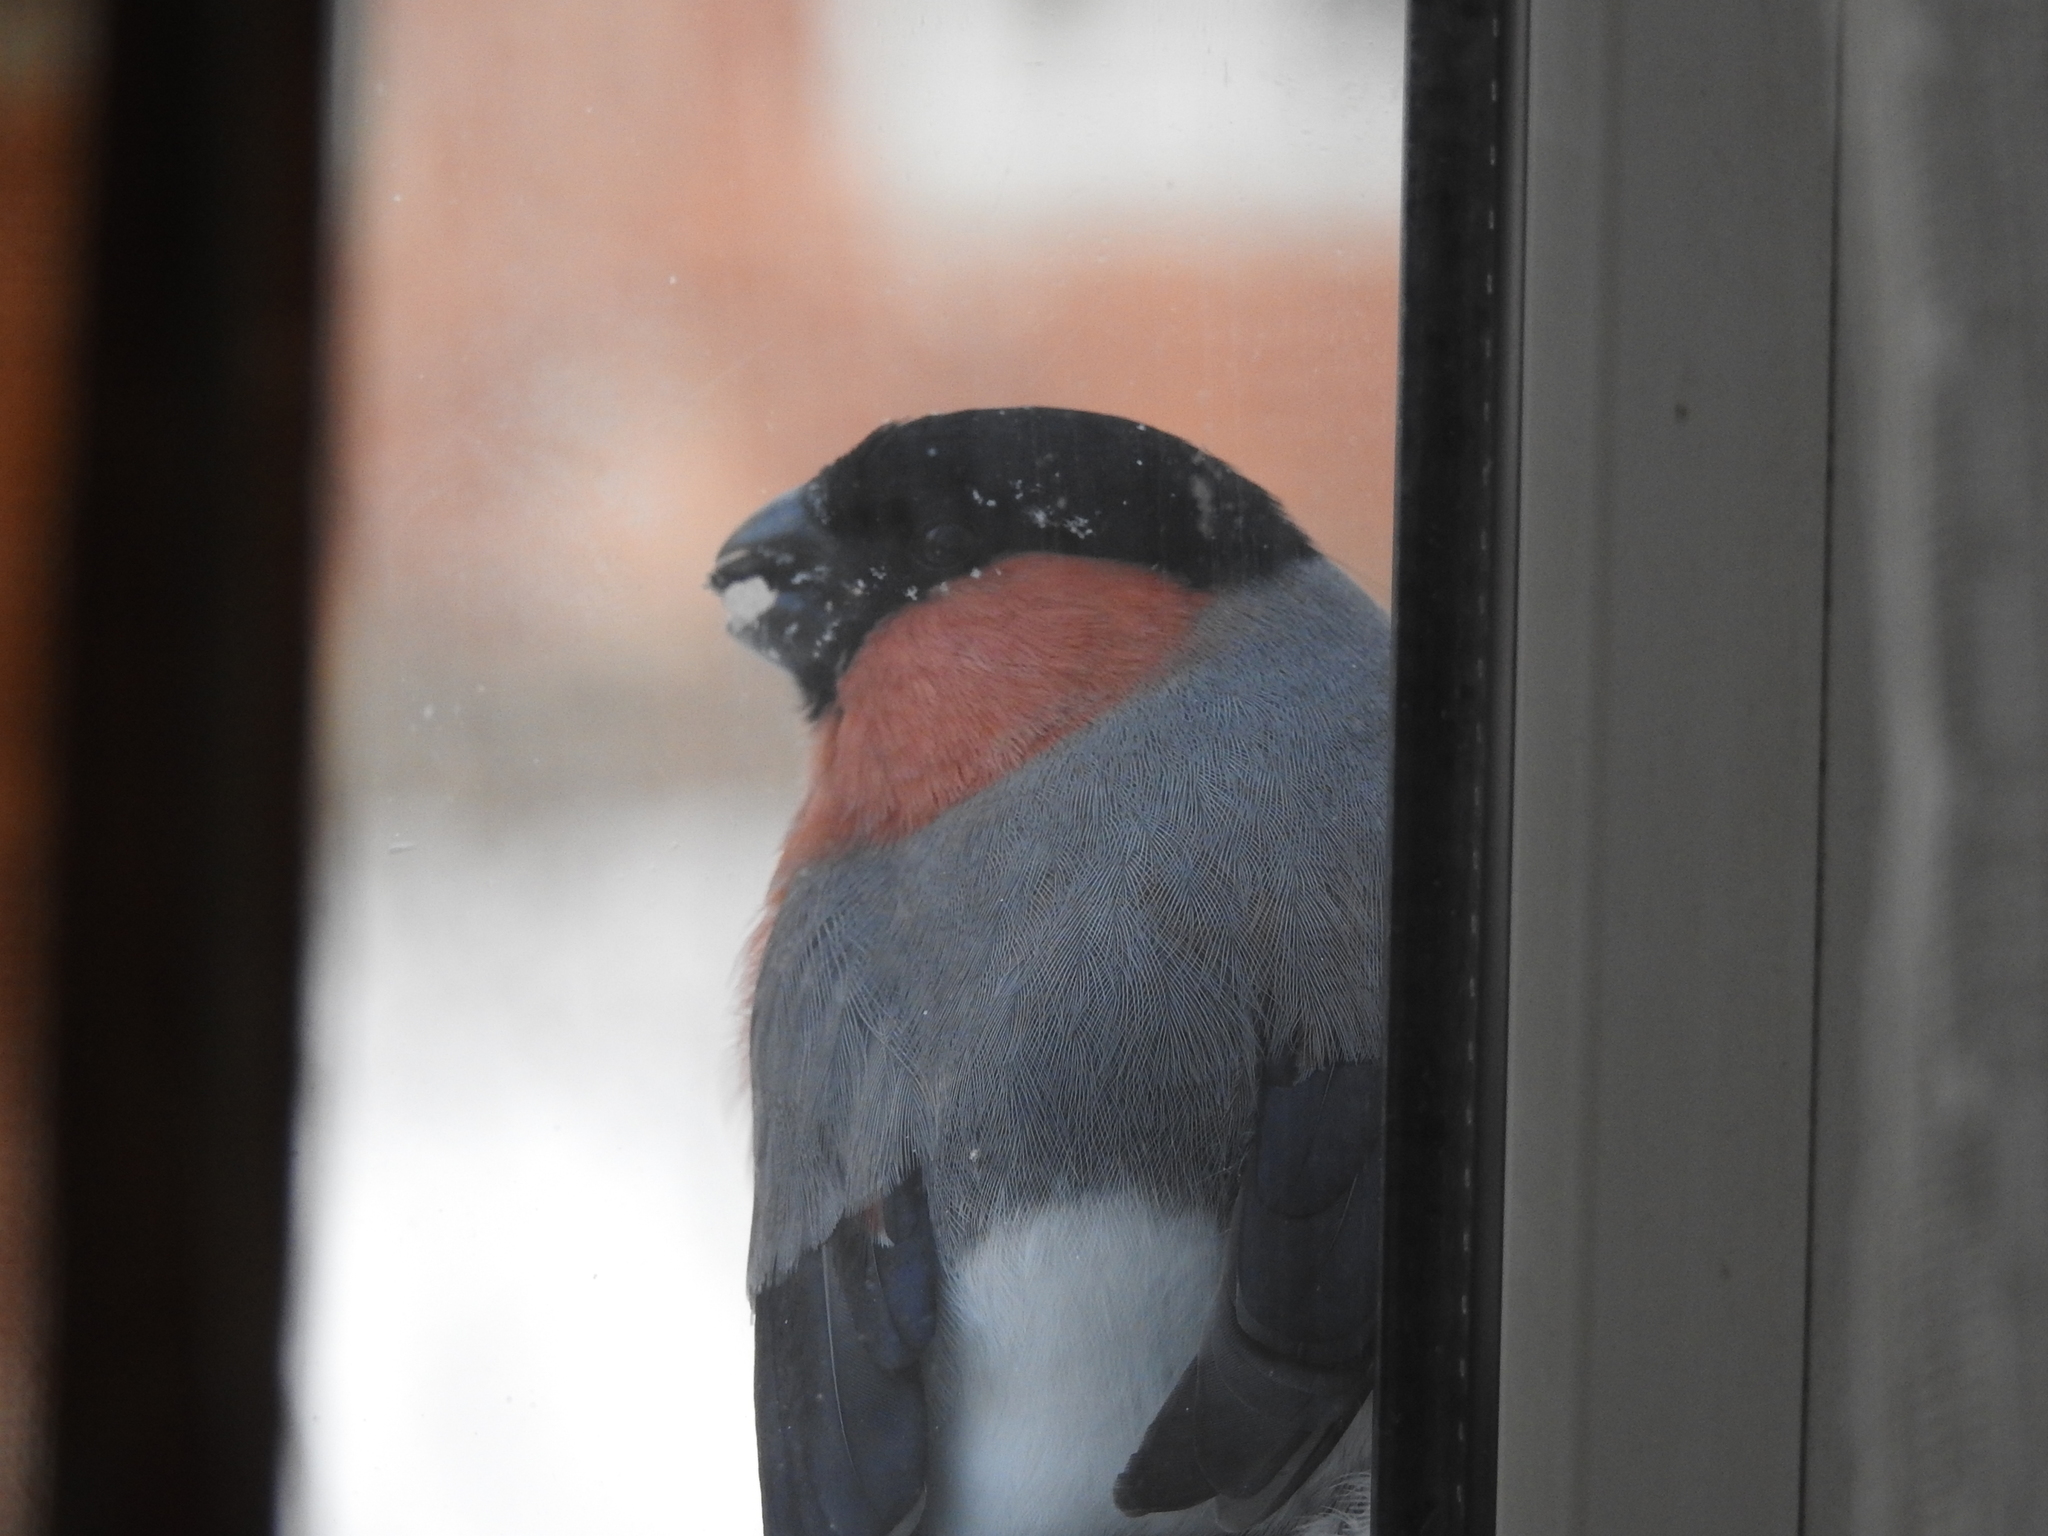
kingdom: Animalia
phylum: Chordata
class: Aves
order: Passeriformes
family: Fringillidae
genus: Pyrrhula
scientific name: Pyrrhula pyrrhula
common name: Eurasian bullfinch
